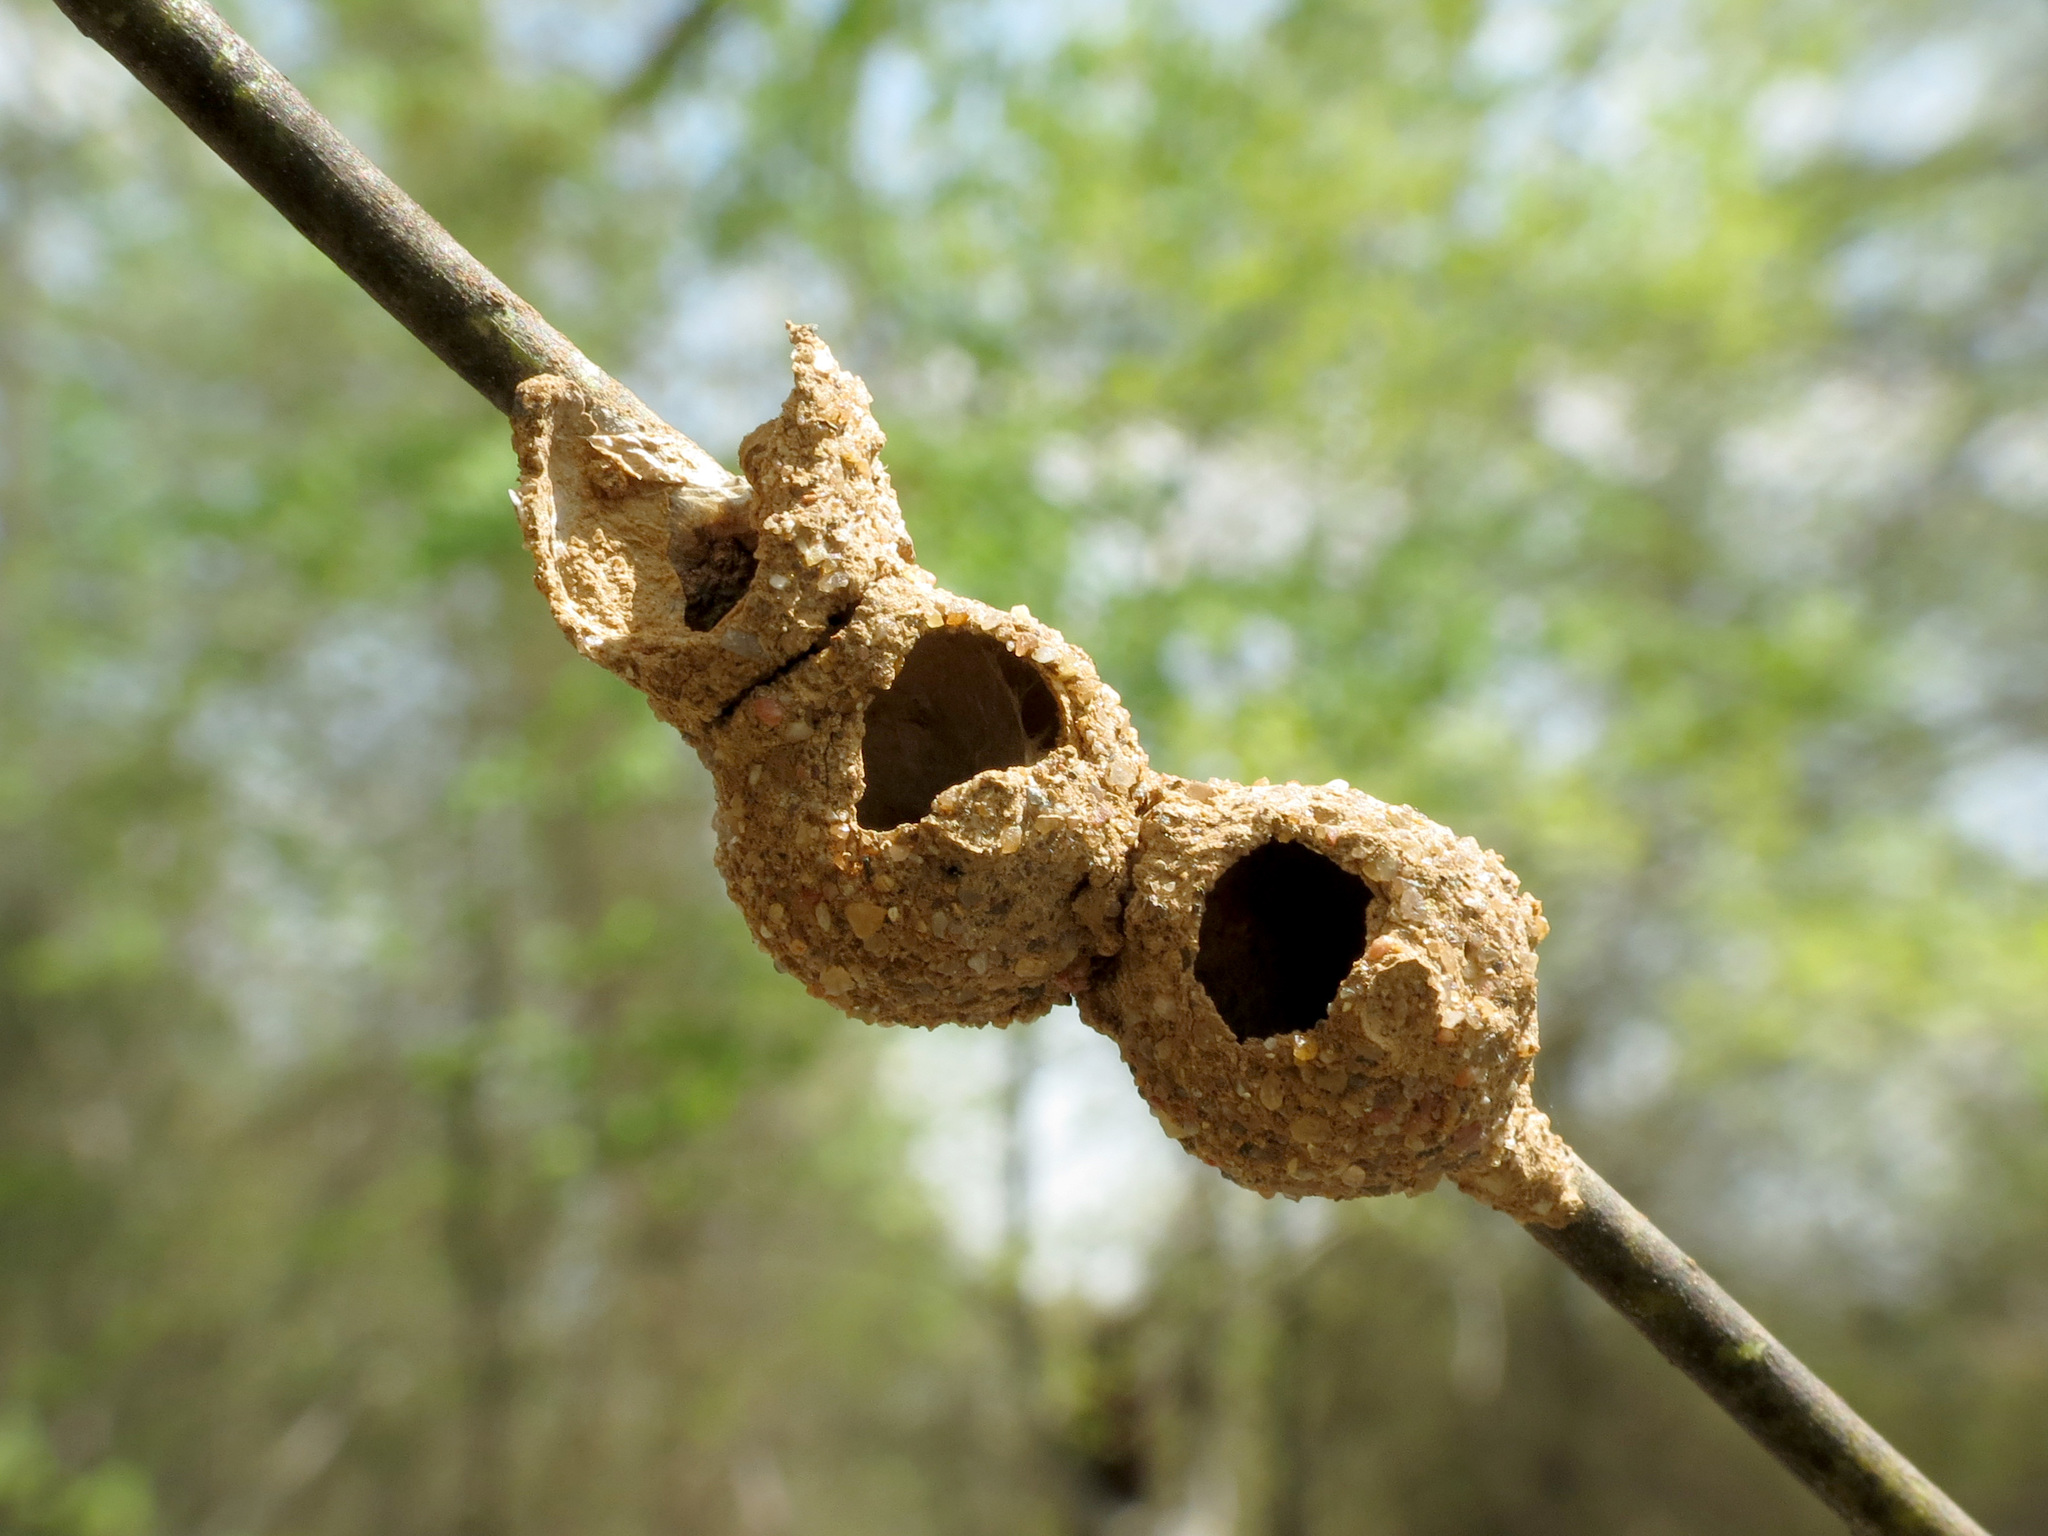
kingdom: Animalia
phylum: Arthropoda
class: Insecta
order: Hymenoptera
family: Vespidae
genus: Eumenes
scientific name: Eumenes
